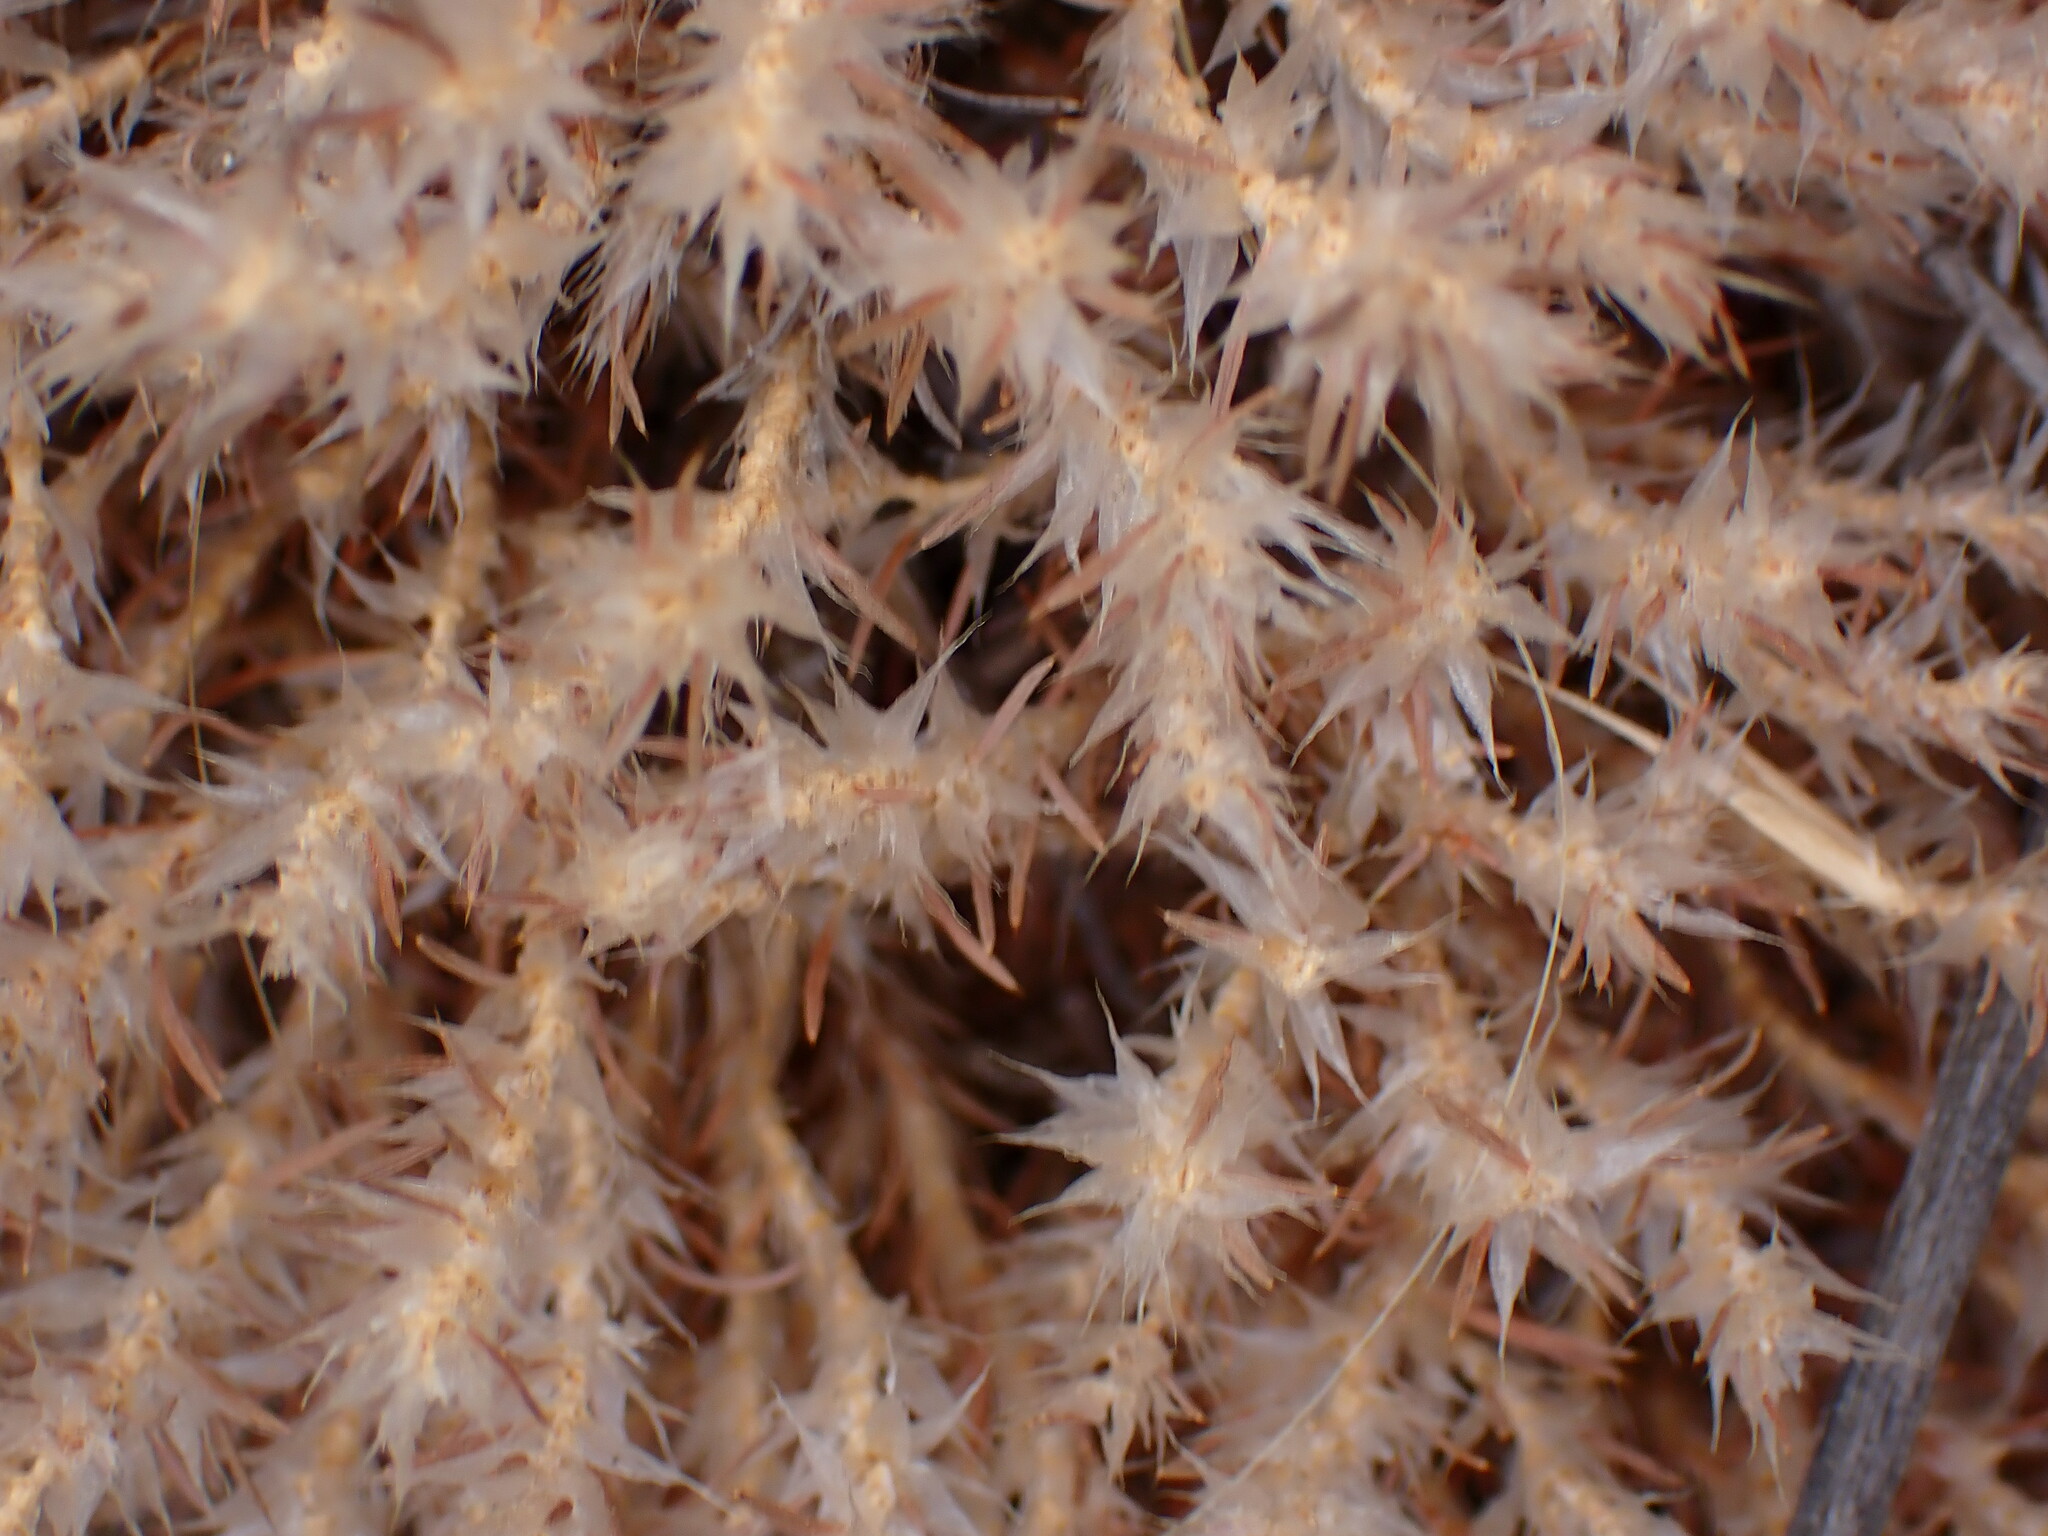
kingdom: Plantae
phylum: Tracheophyta
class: Magnoliopsida
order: Caryophyllales
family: Caryophyllaceae
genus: Cardionema
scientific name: Cardionema ramosissima
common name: Sandcarpet
